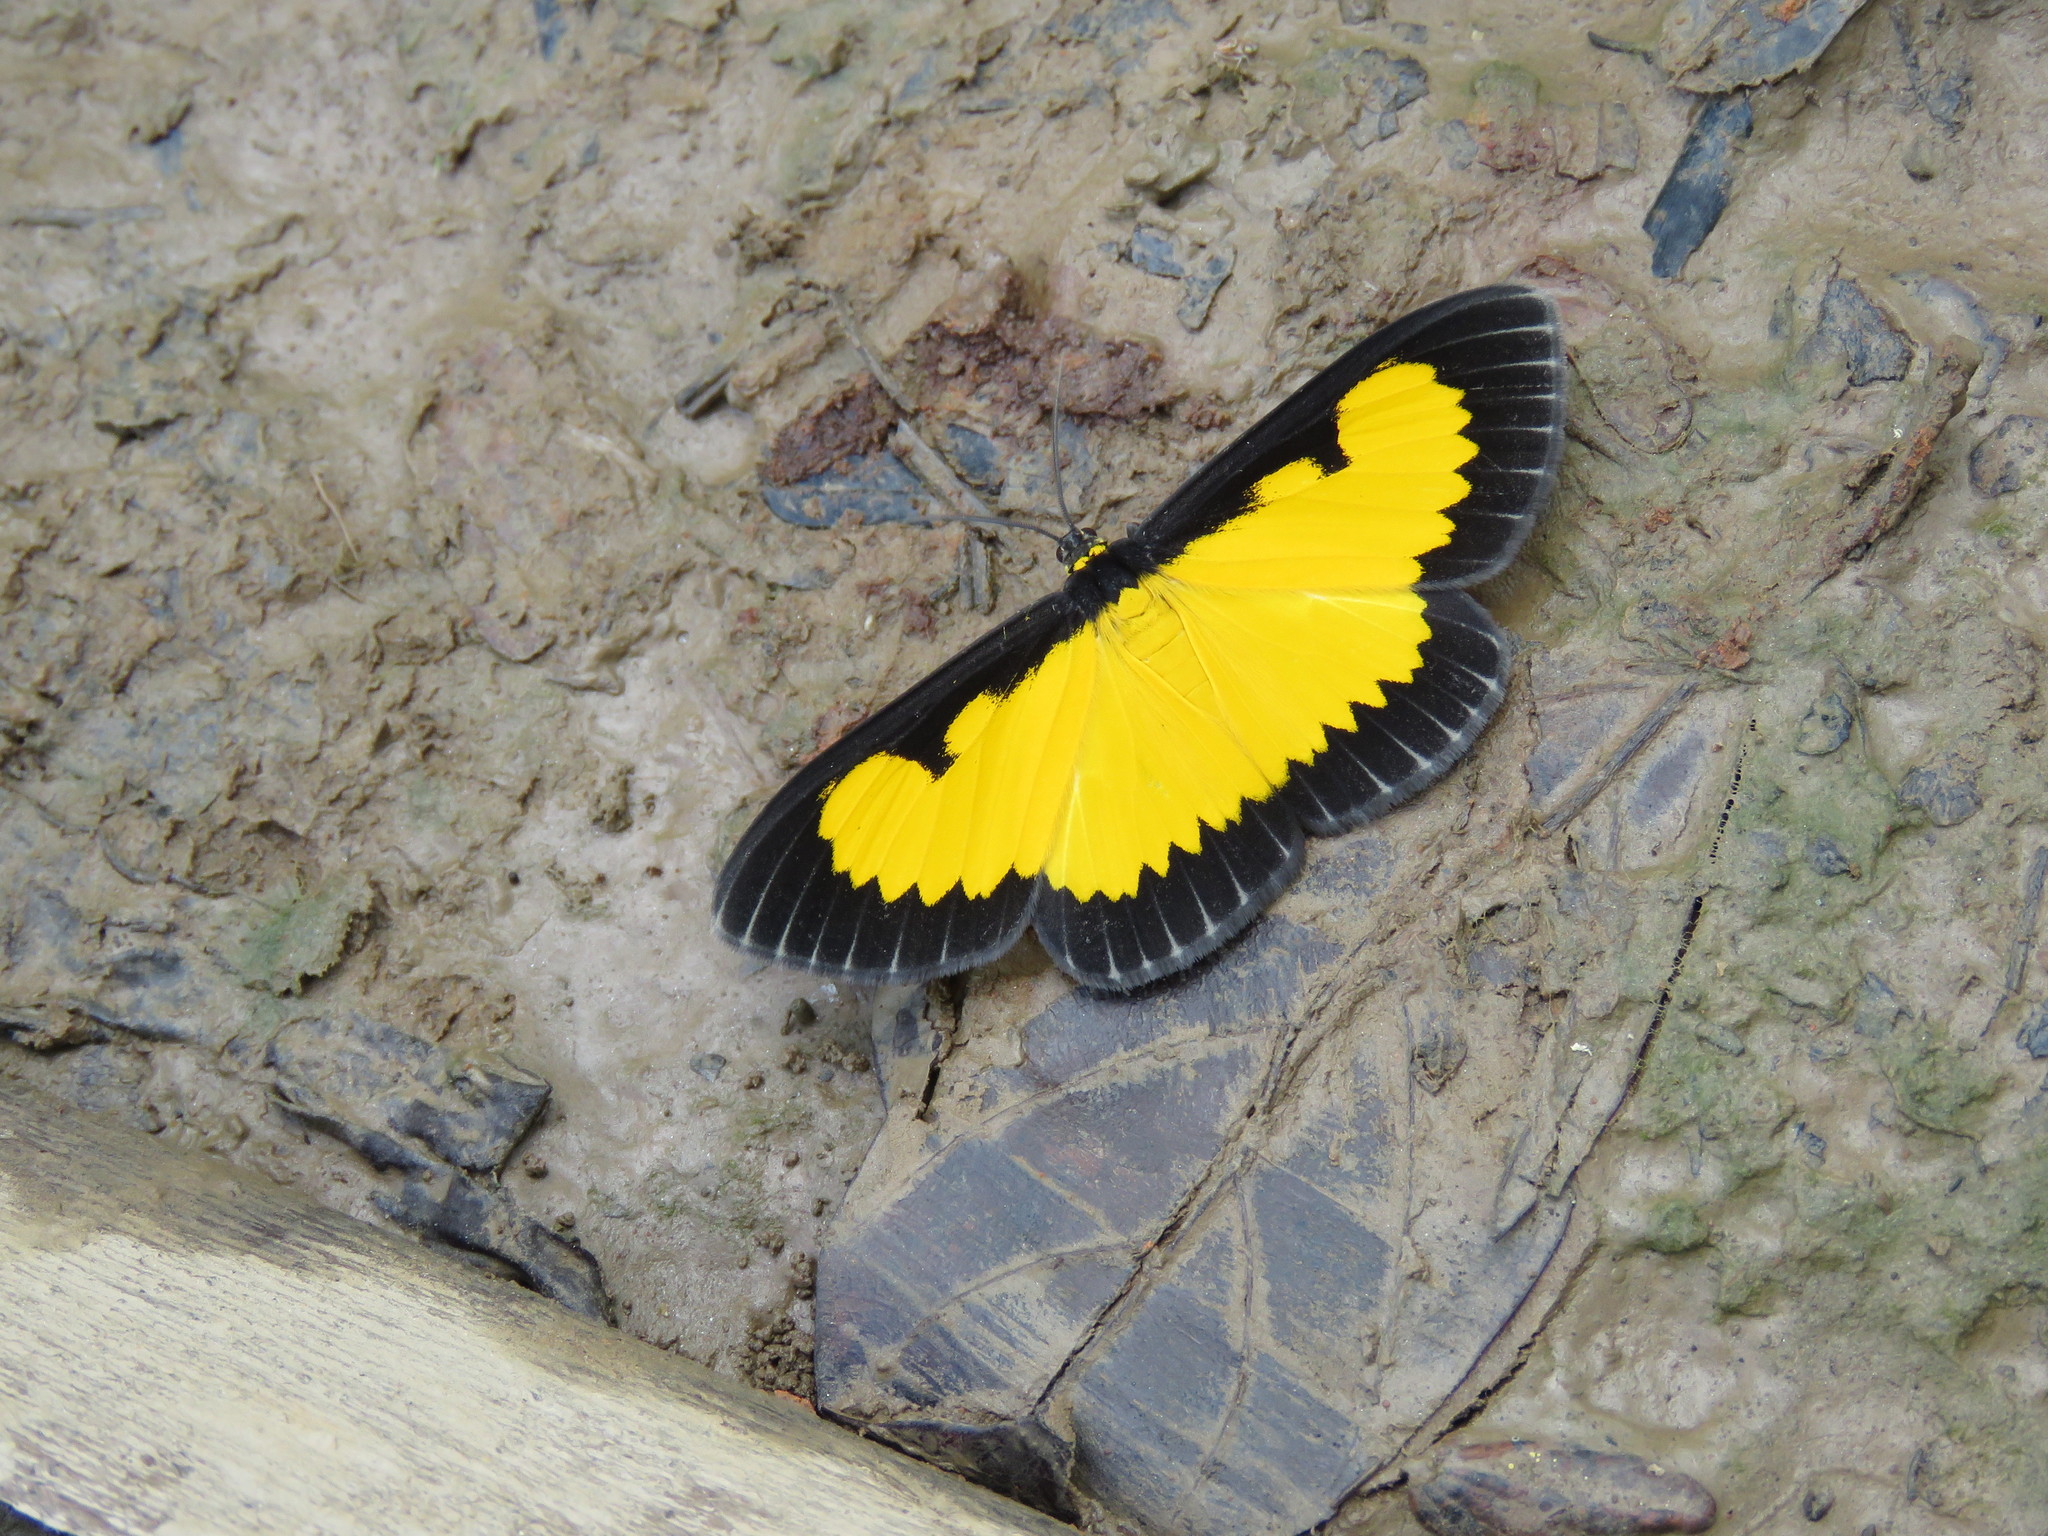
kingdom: Animalia
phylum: Arthropoda
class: Insecta
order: Lepidoptera
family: Geometridae
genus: Xanthyris
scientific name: Xanthyris flaveolata
